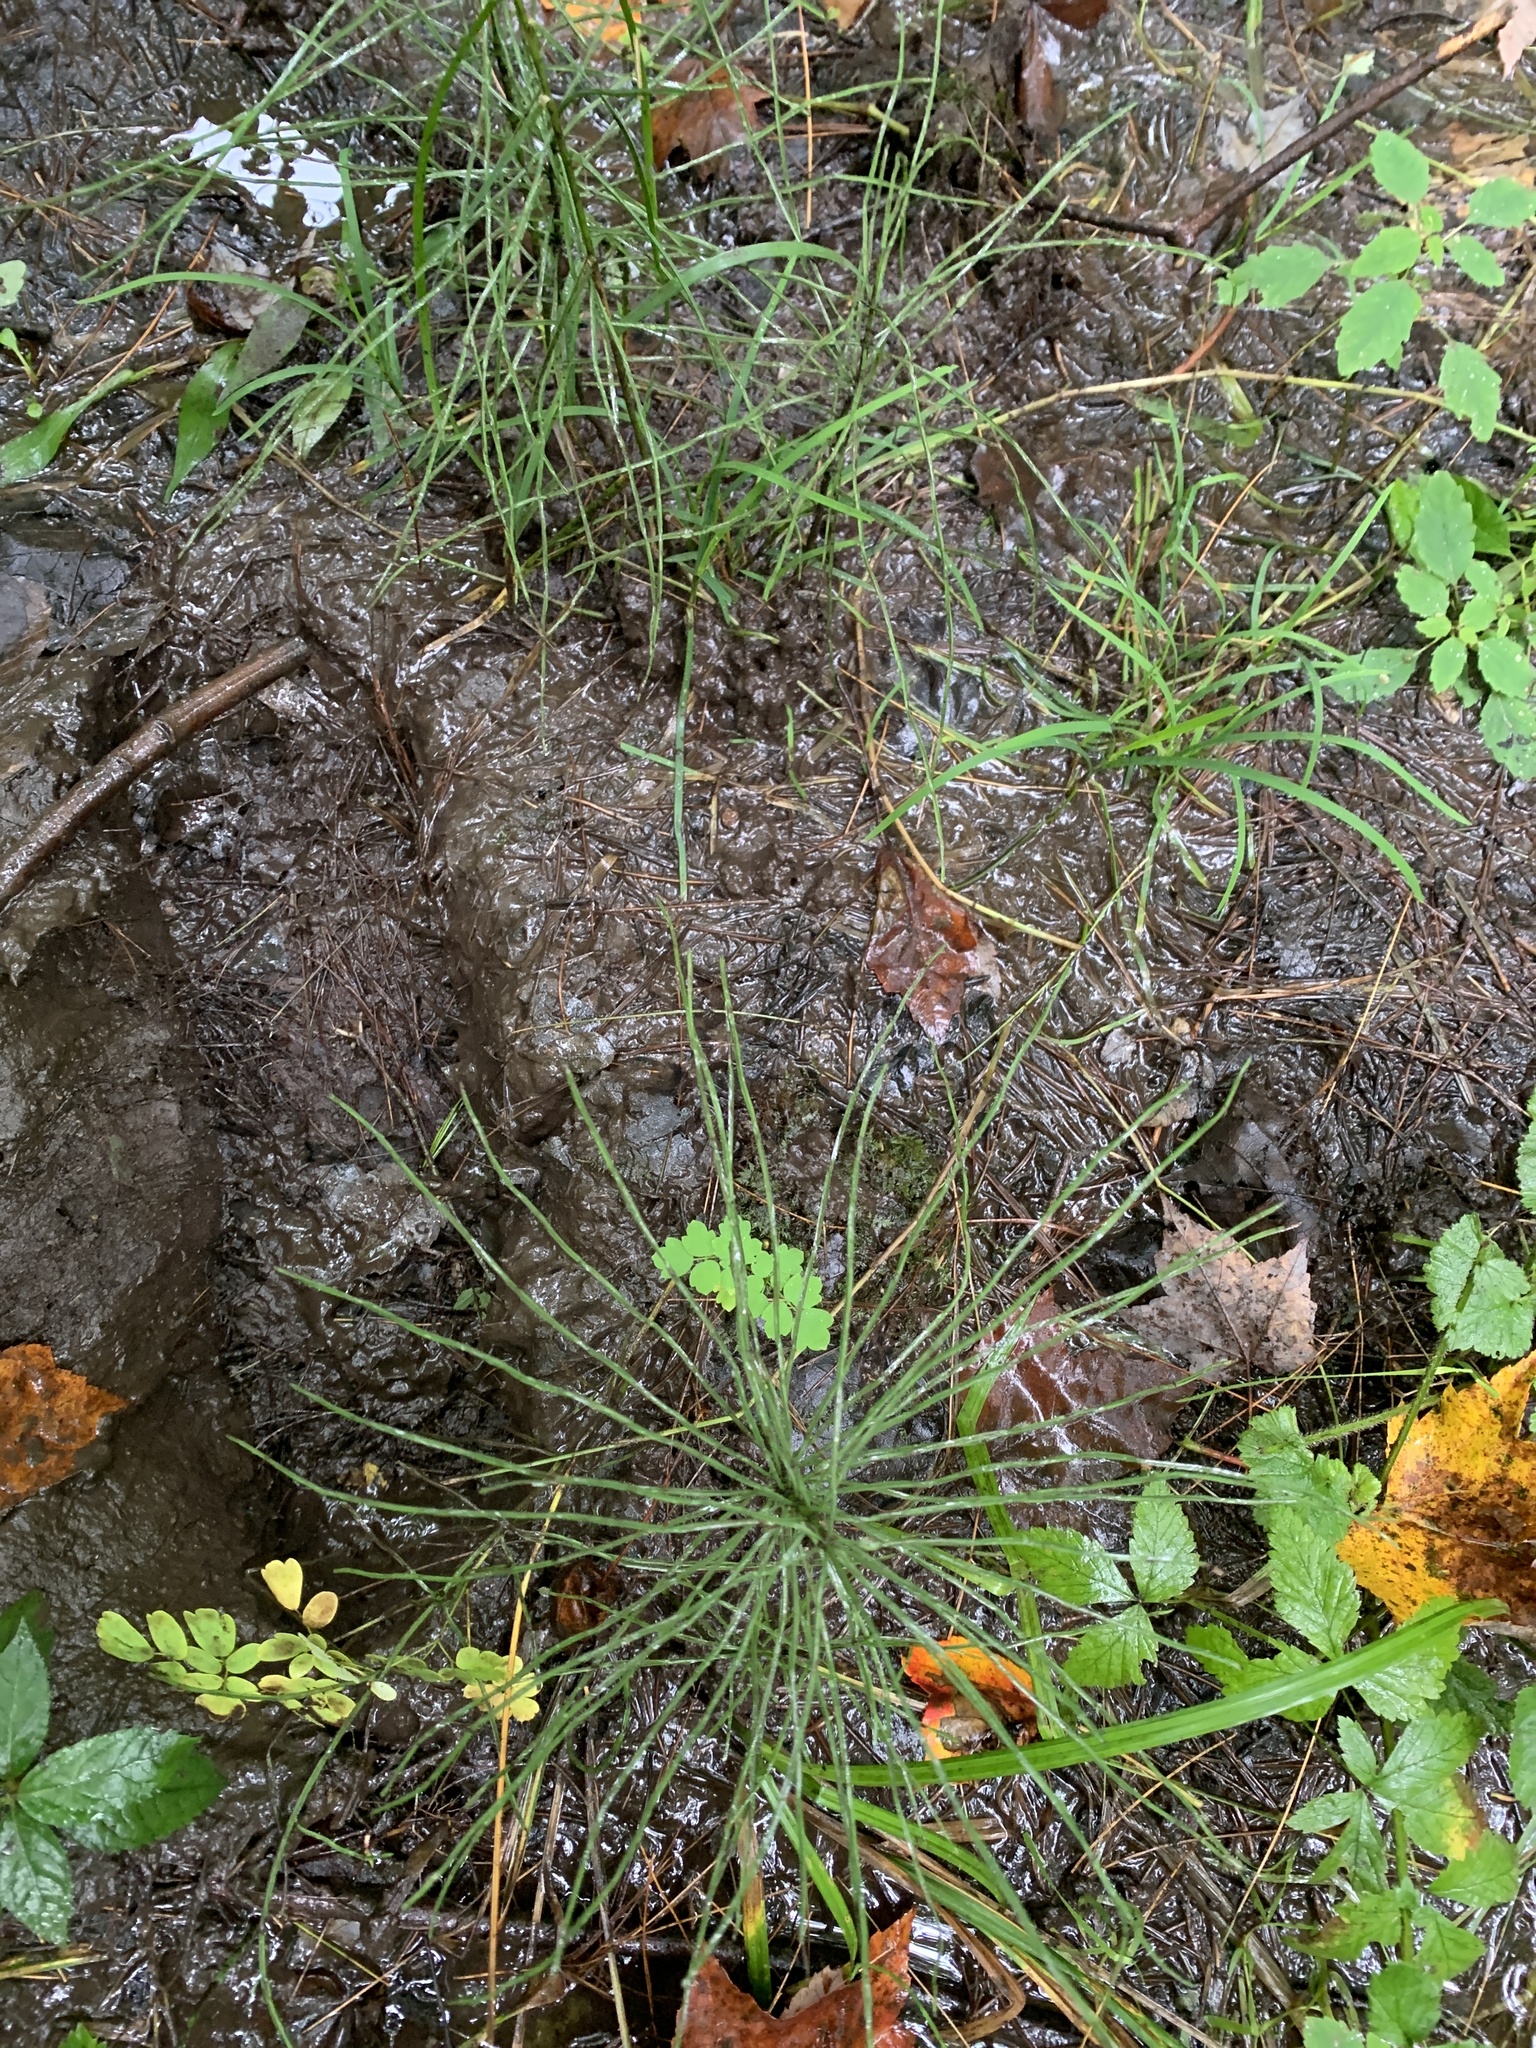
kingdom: Plantae
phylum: Tracheophyta
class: Polypodiopsida
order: Equisetales
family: Equisetaceae
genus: Equisetum
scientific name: Equisetum arvense
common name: Field horsetail
